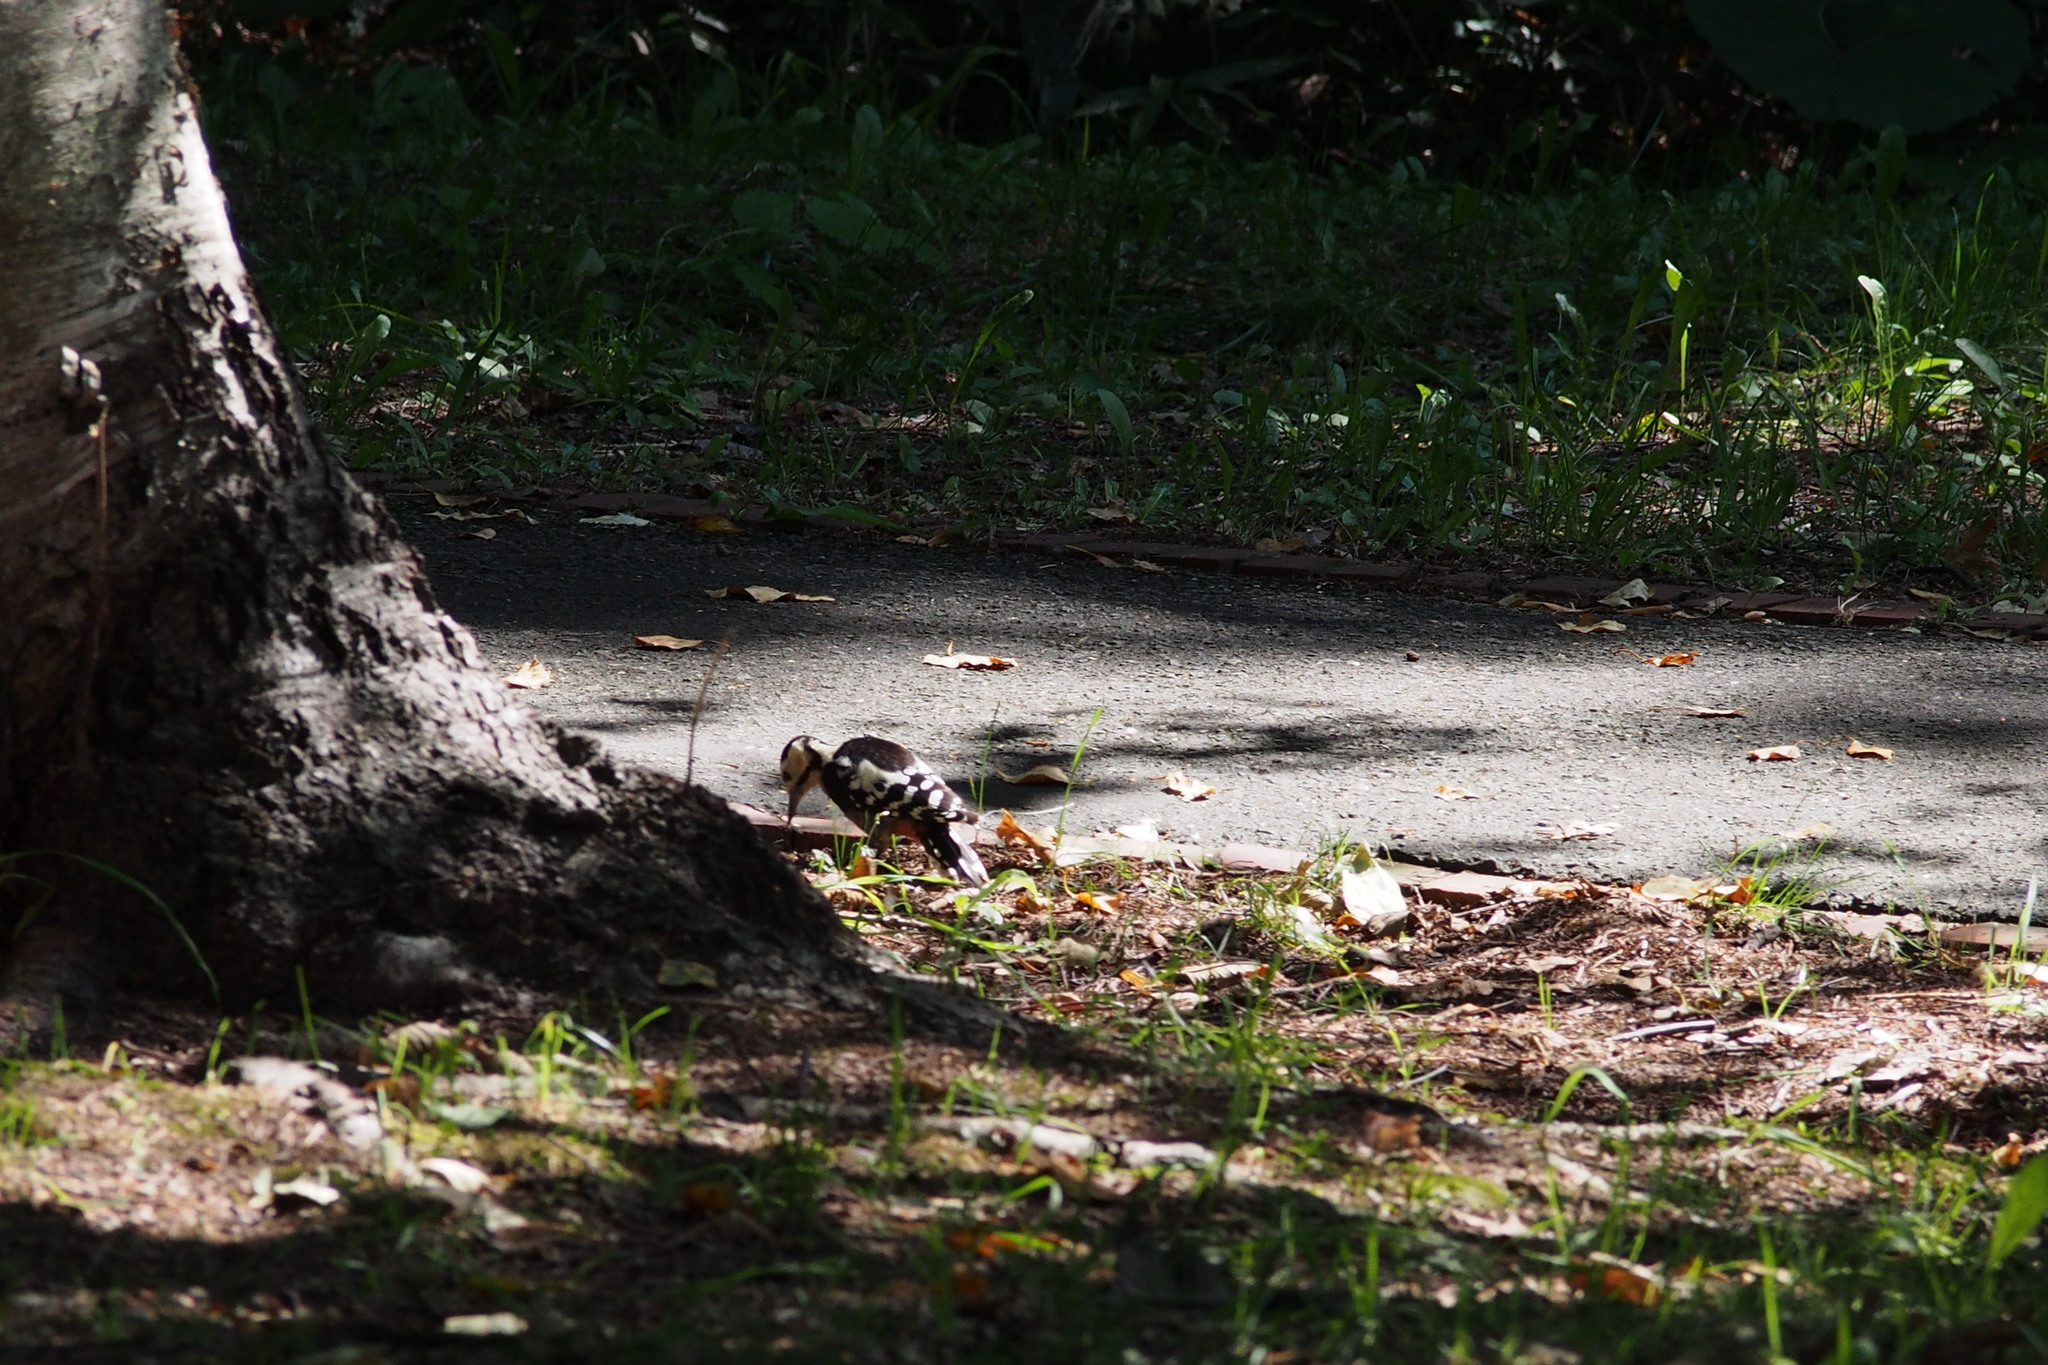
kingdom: Animalia
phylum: Chordata
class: Aves
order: Piciformes
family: Picidae
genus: Dendrocopos
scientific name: Dendrocopos major
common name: Great spotted woodpecker
